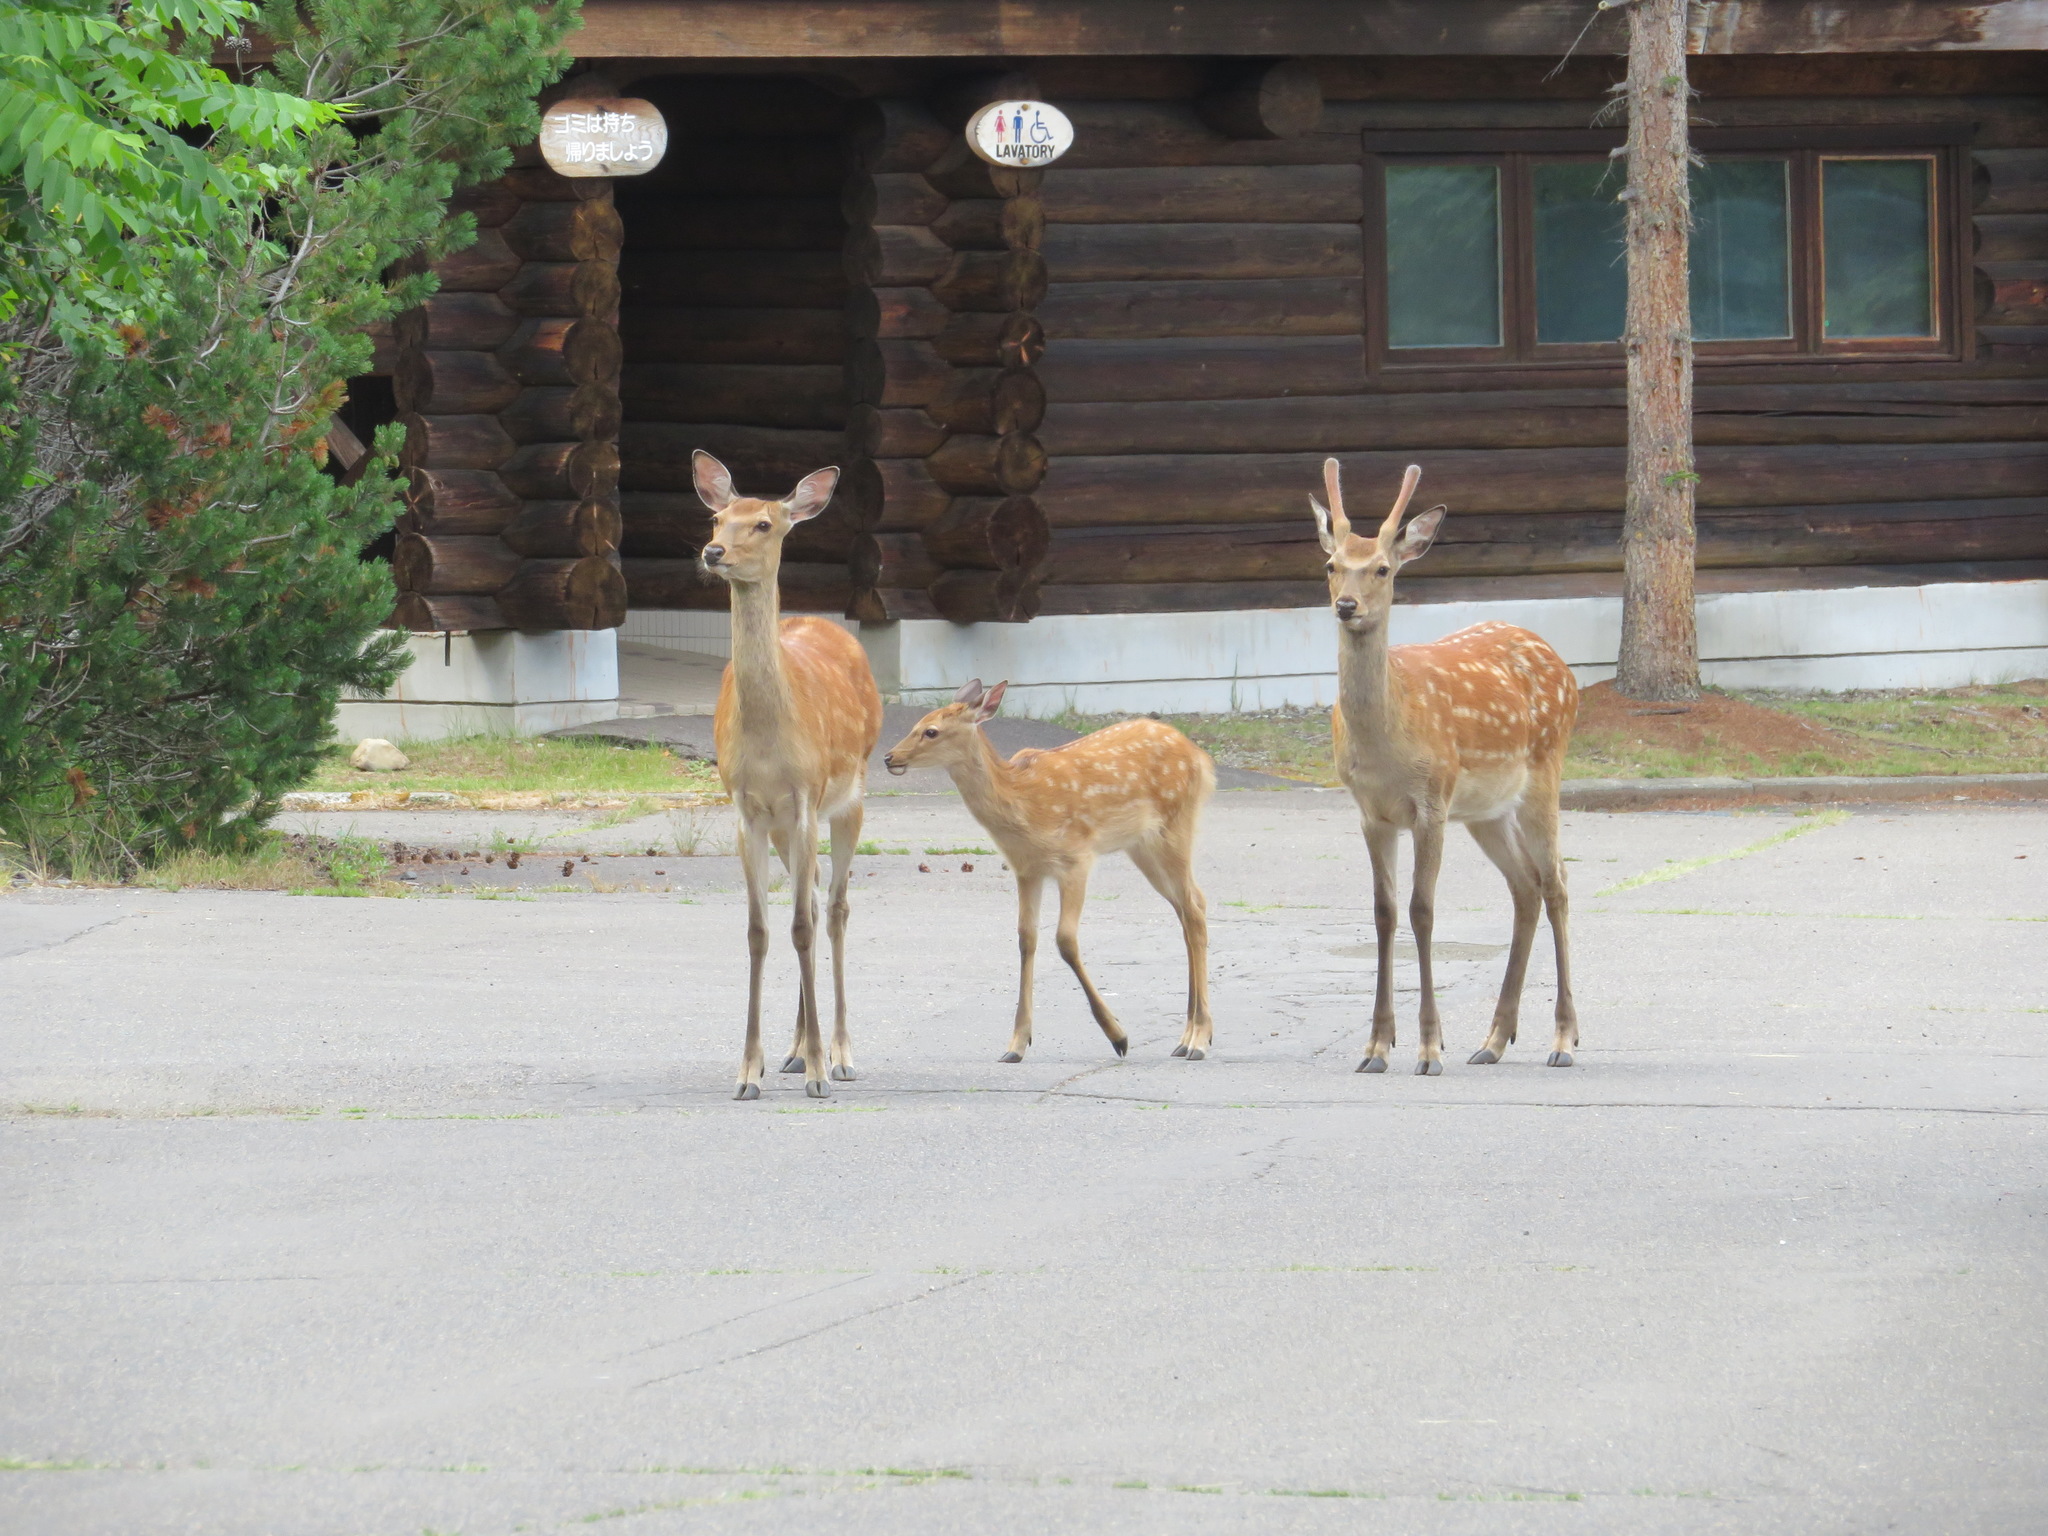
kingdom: Animalia
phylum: Chordata
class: Mammalia
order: Artiodactyla
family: Cervidae
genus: Cervus
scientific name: Cervus nippon
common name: Sika deer
